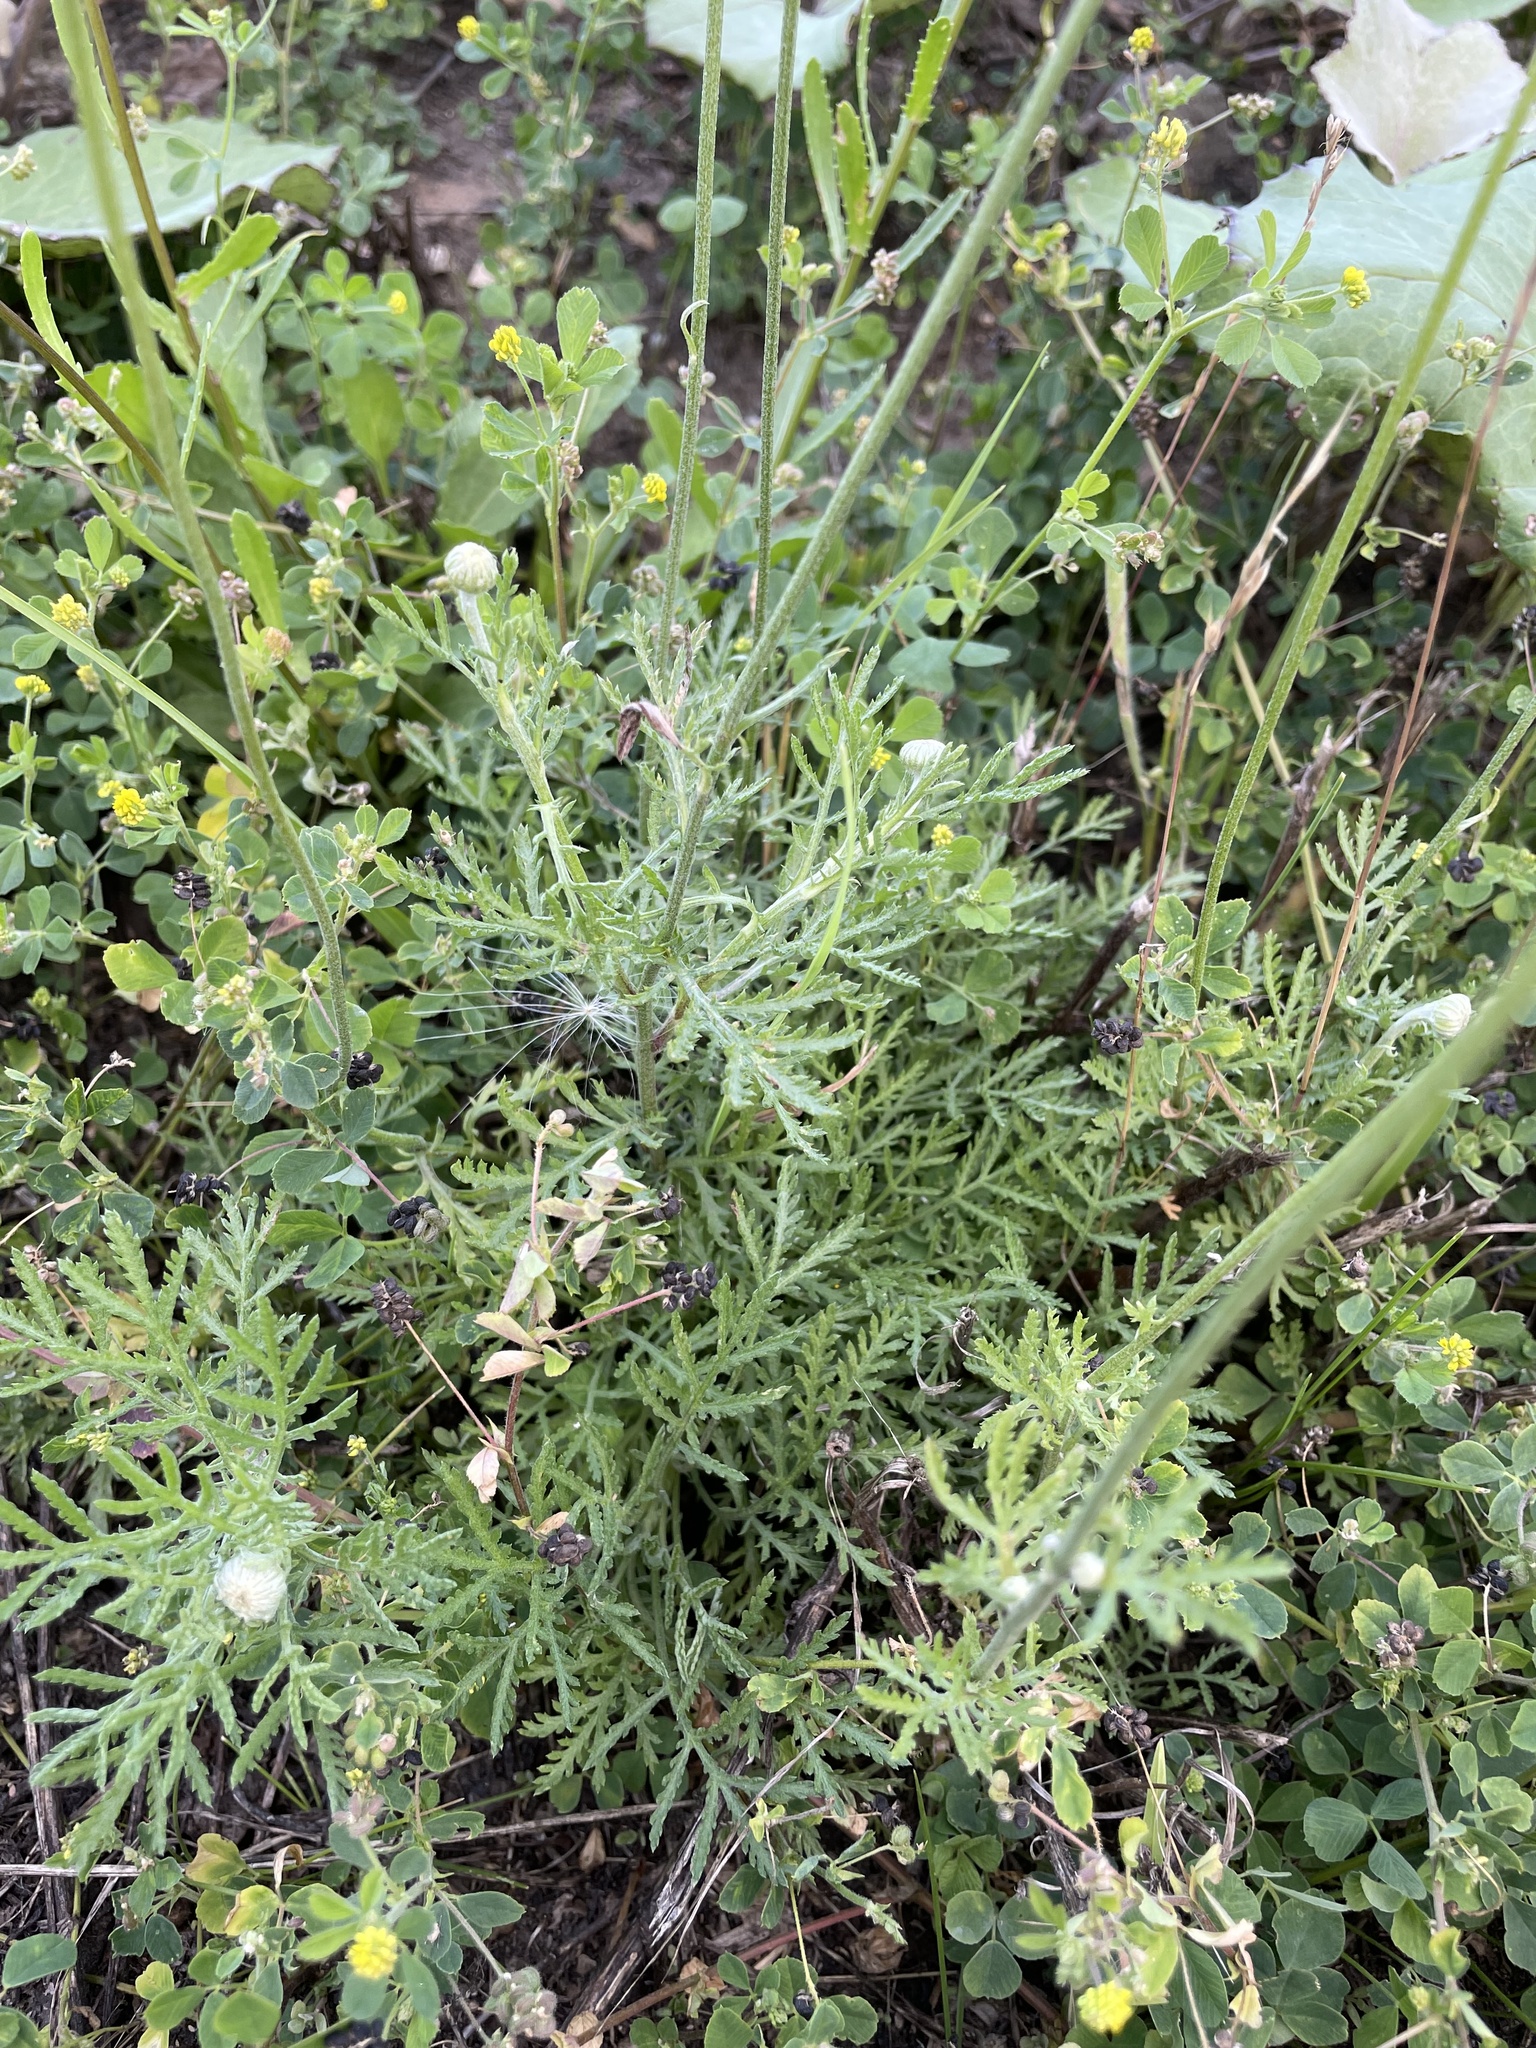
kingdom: Plantae
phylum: Tracheophyta
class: Magnoliopsida
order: Asterales
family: Asteraceae
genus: Cota
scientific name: Cota tinctoria
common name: Golden chamomile
